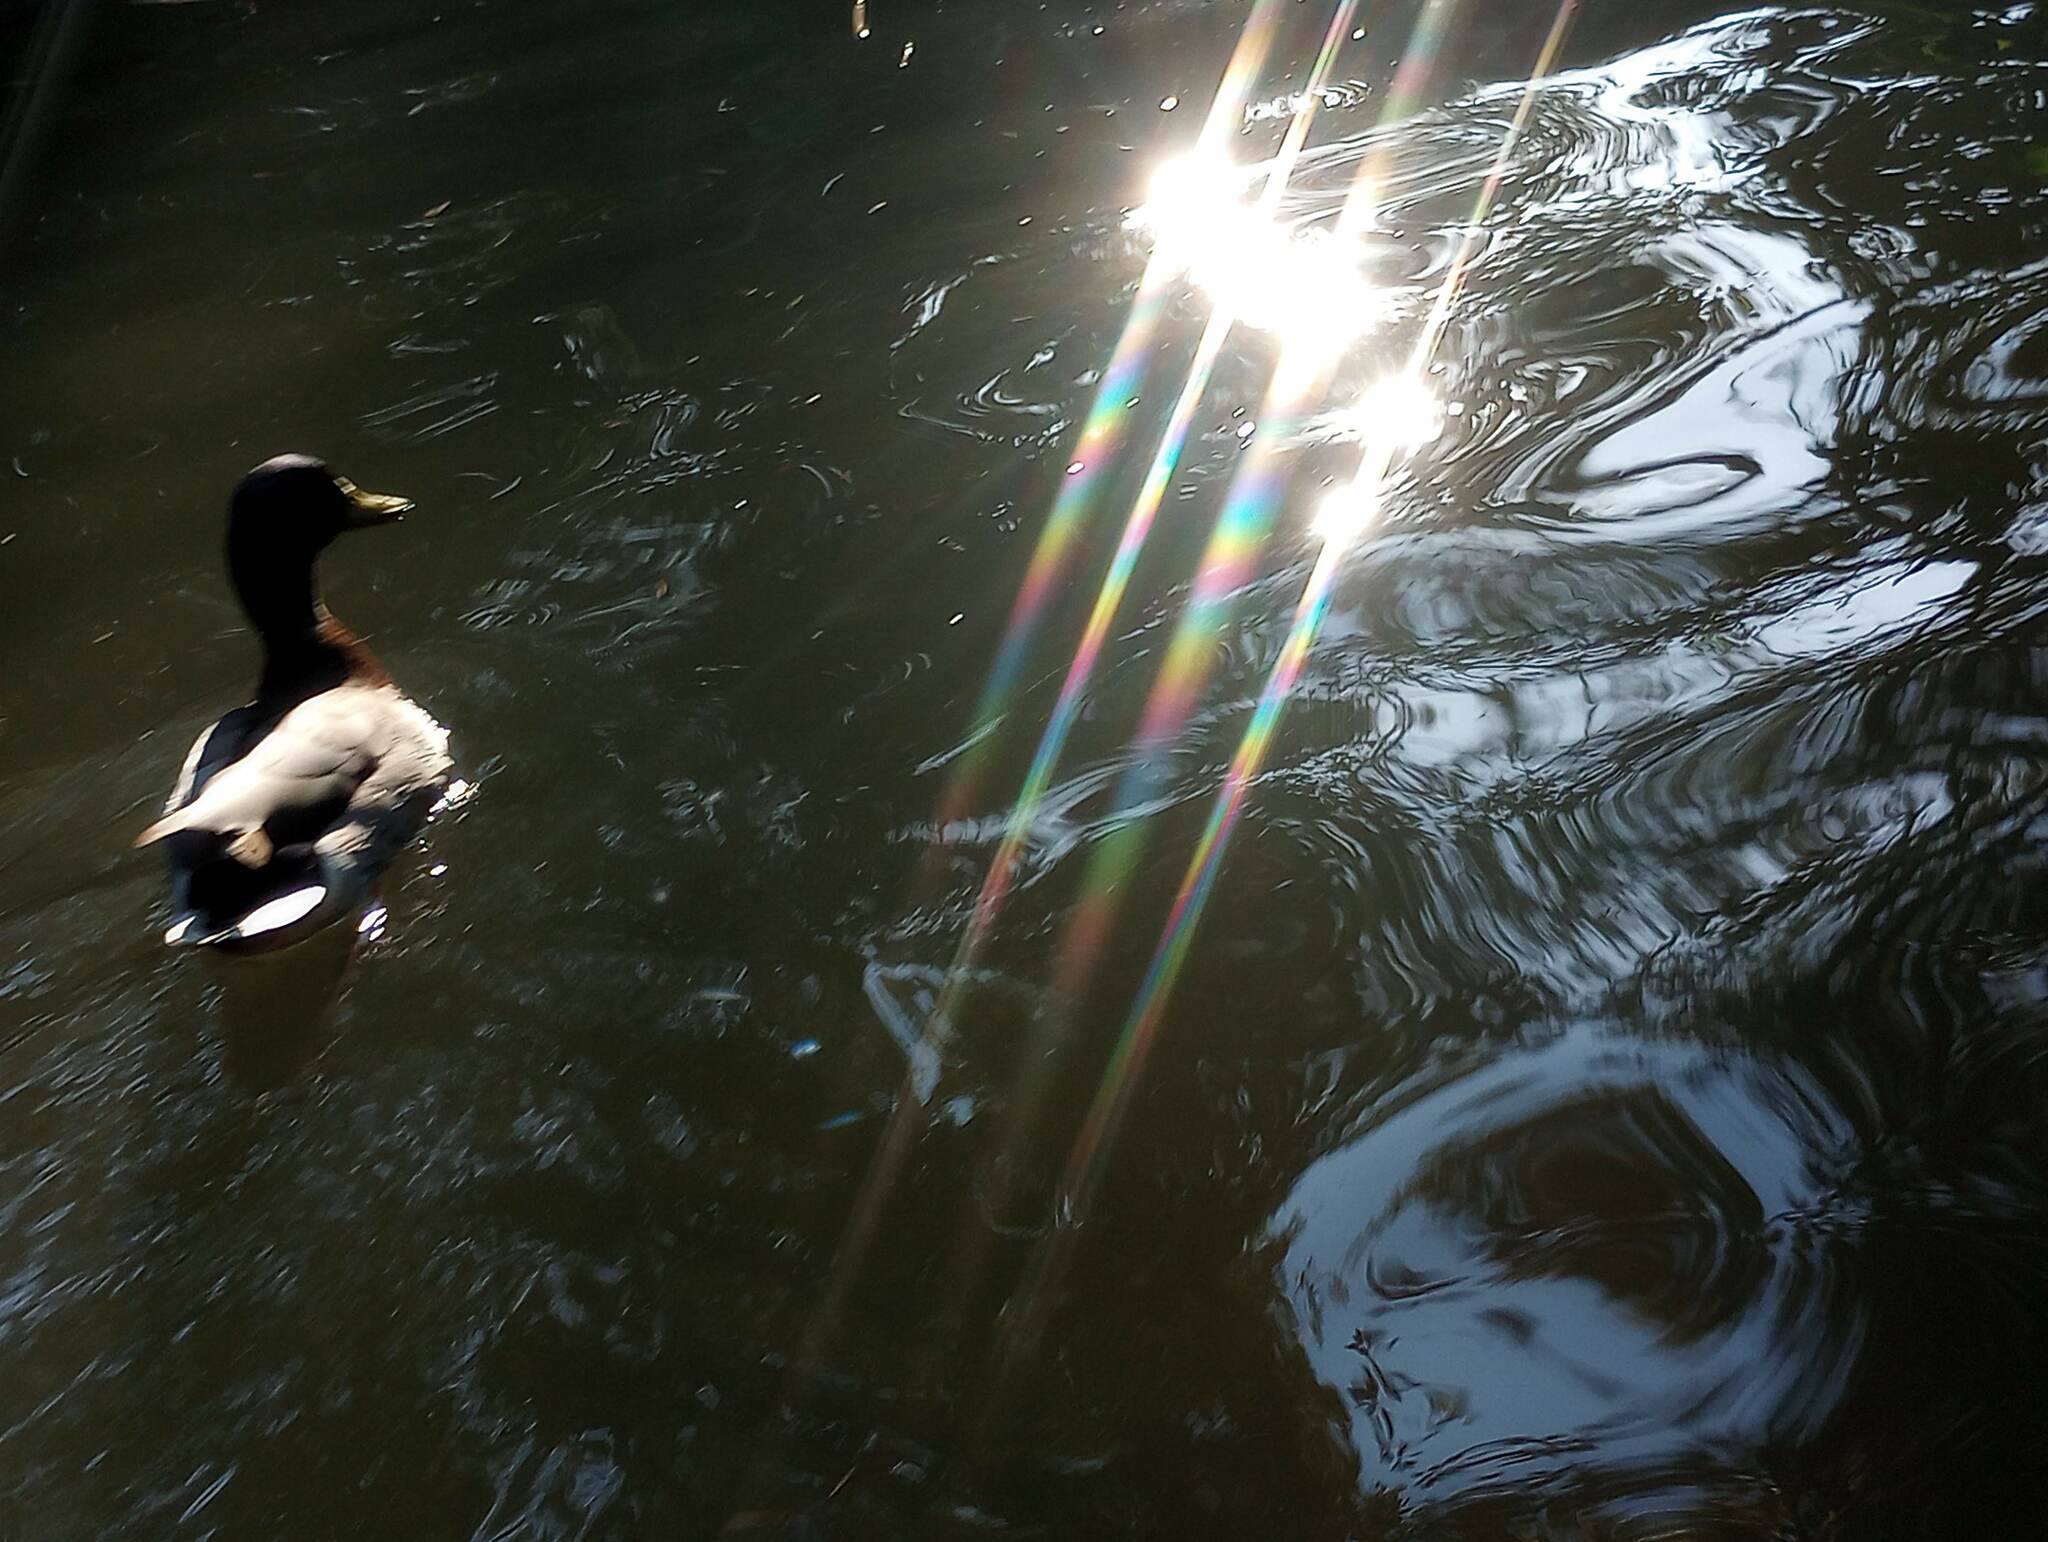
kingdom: Animalia
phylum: Chordata
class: Aves
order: Anseriformes
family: Anatidae
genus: Anas
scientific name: Anas platyrhynchos
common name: Mallard
